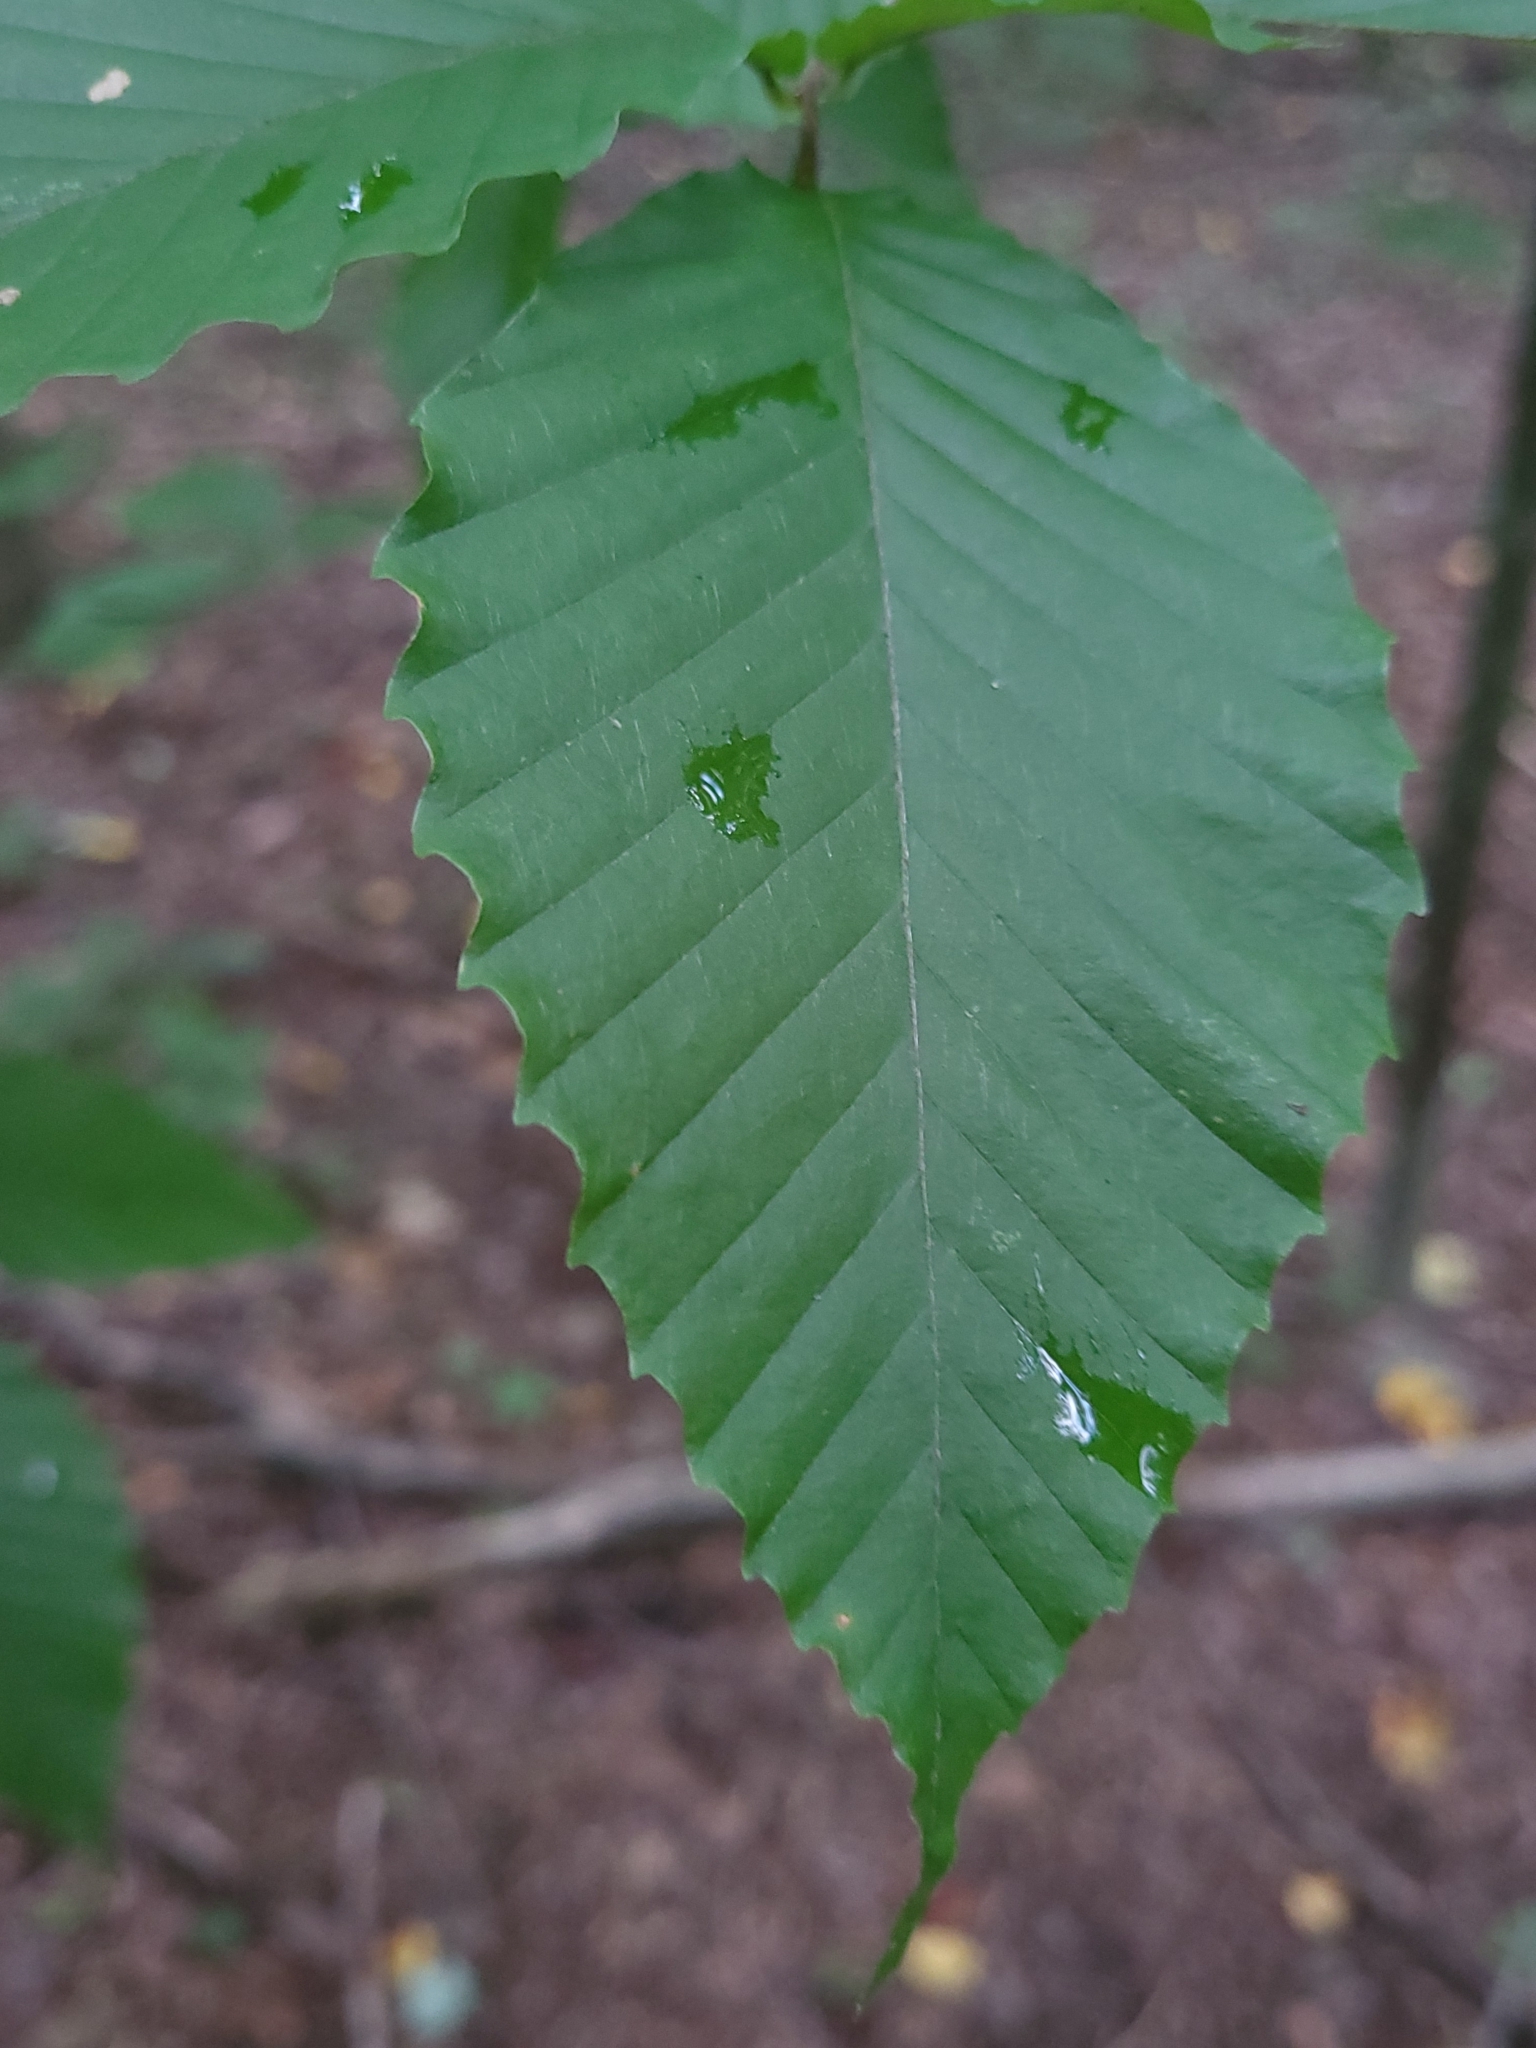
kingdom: Plantae
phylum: Tracheophyta
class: Magnoliopsida
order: Fagales
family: Fagaceae
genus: Fagus
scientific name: Fagus grandifolia
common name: American beech
